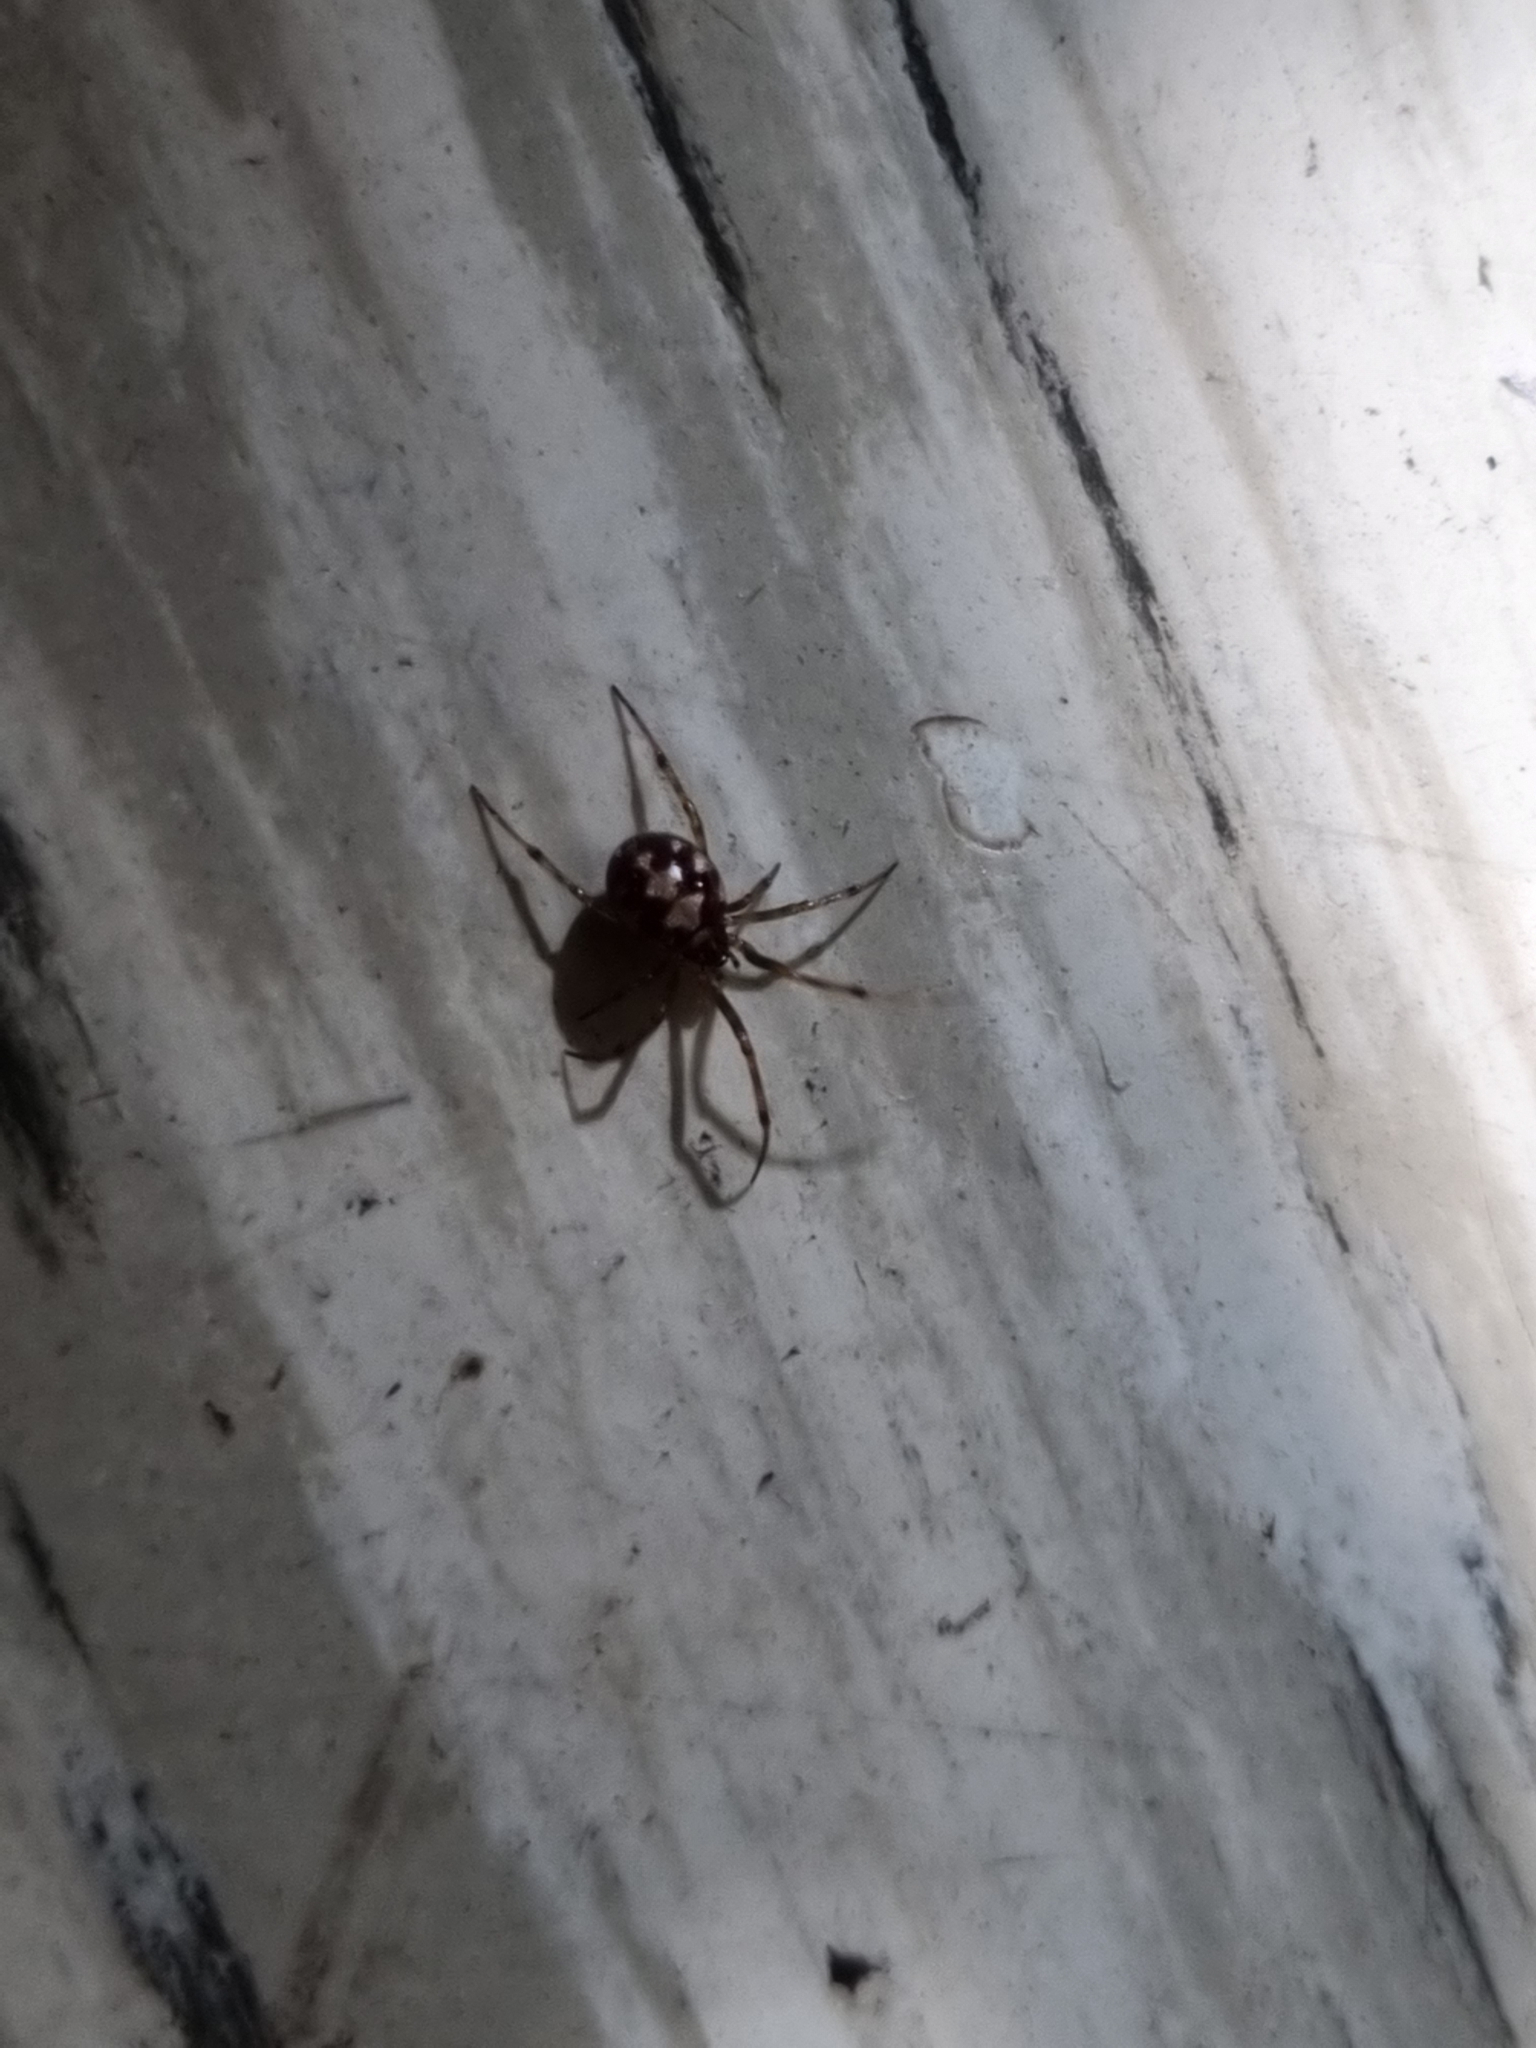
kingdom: Animalia
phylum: Arthropoda
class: Arachnida
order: Araneae
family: Theridiidae
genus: Steatoda
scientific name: Steatoda triangulosa
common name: Triangulate bud spider
